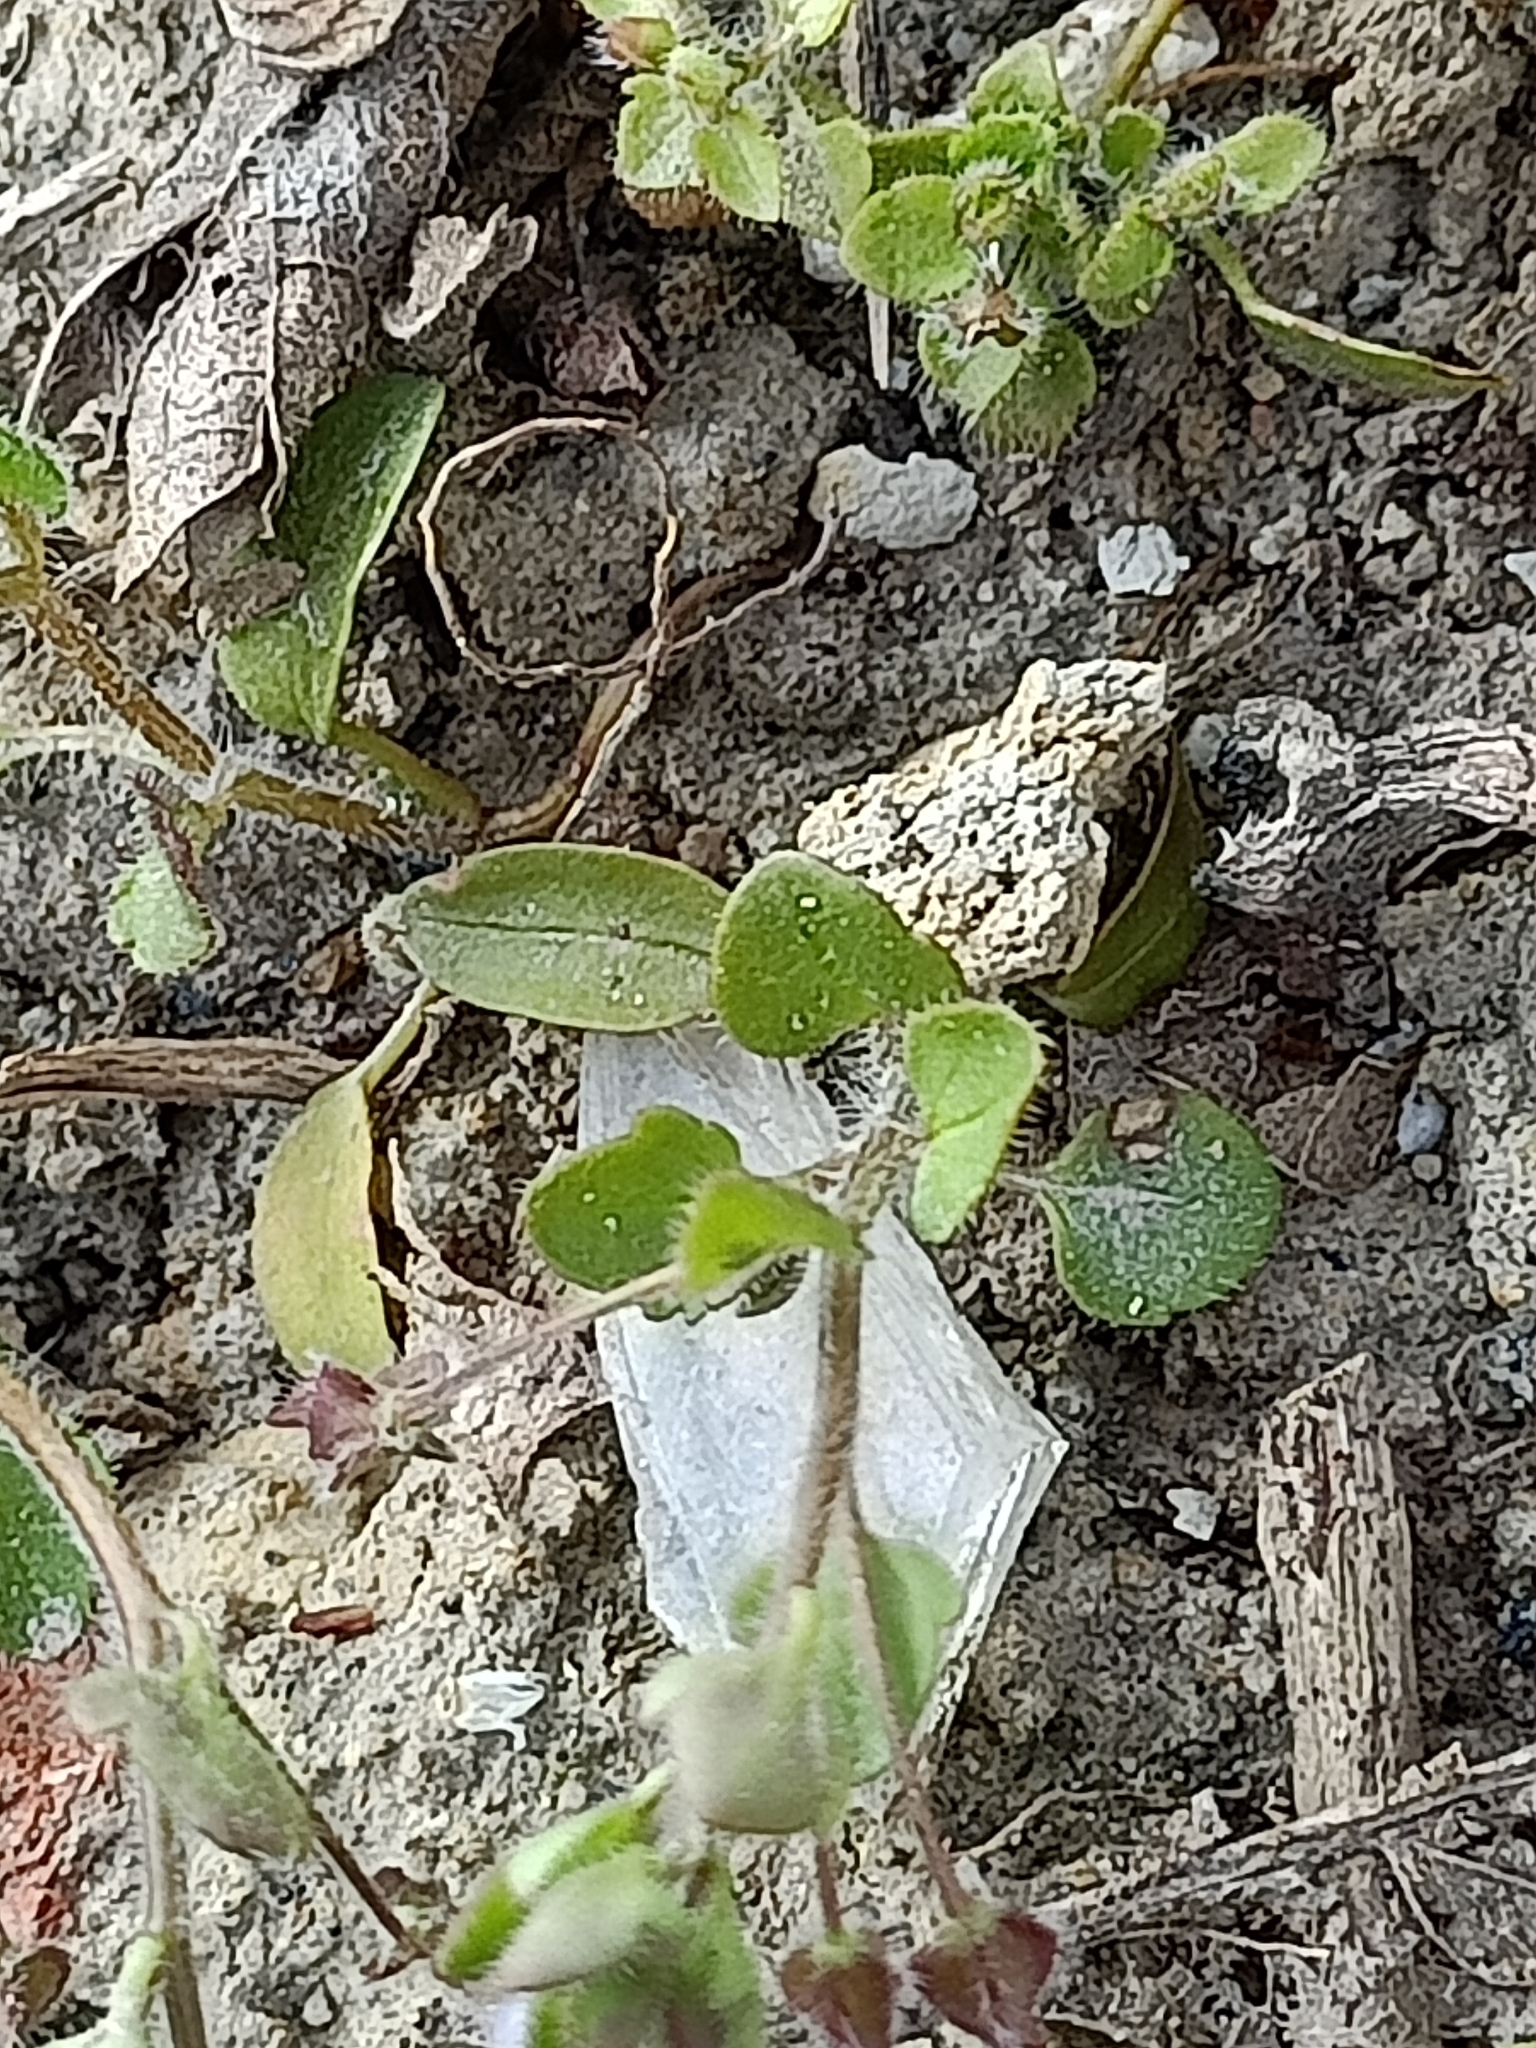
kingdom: Plantae
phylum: Tracheophyta
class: Magnoliopsida
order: Lamiales
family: Plantaginaceae
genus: Veronica
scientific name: Veronica sublobata
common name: False ivy-leaved speedwell
